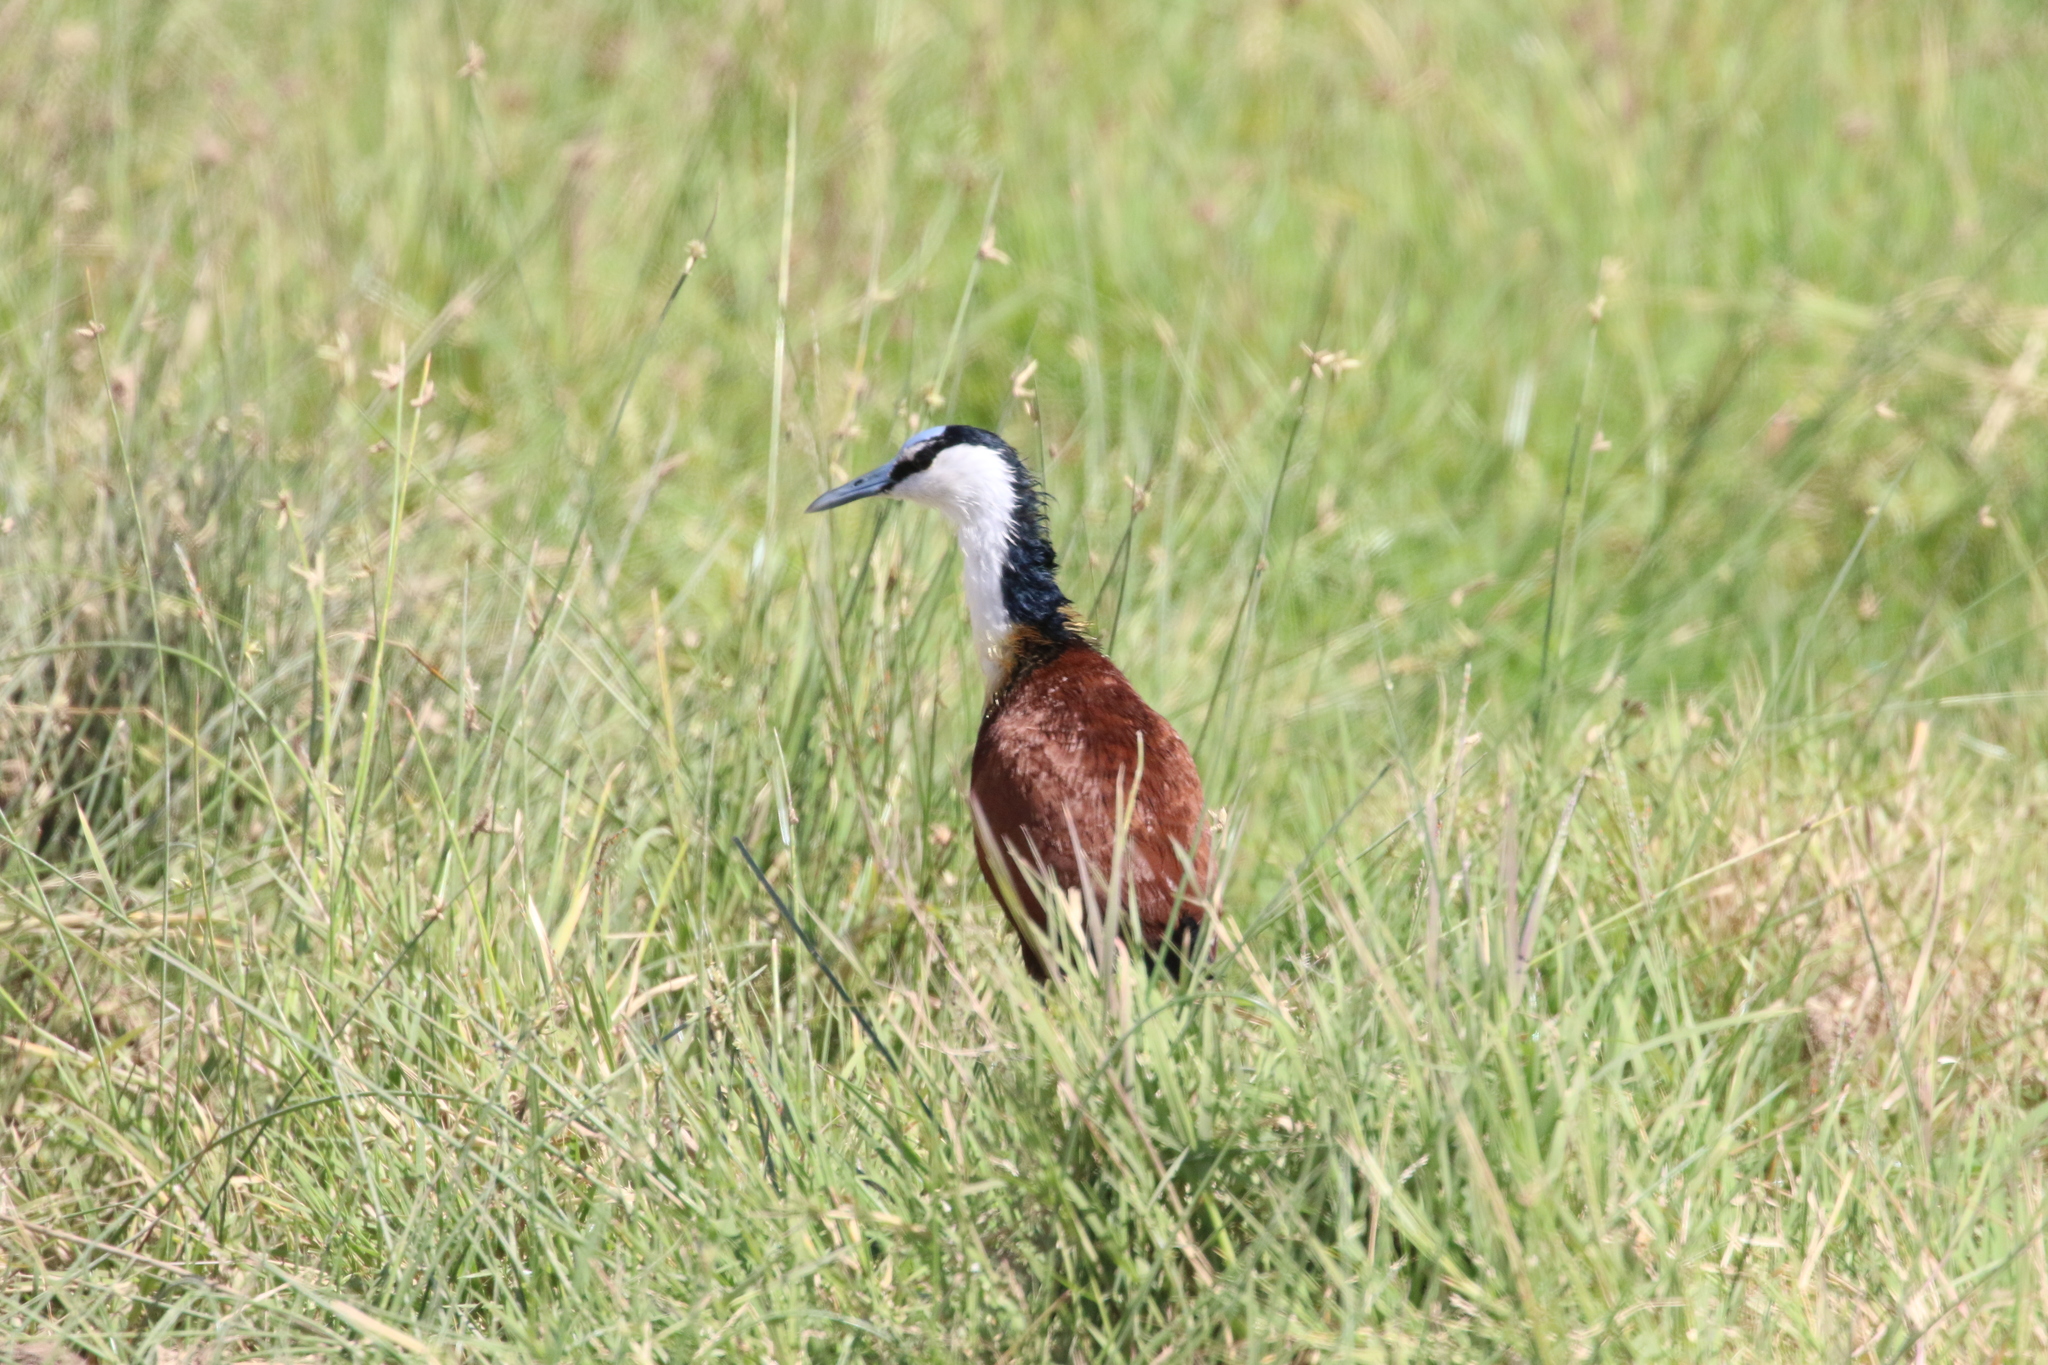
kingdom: Animalia
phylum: Chordata
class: Aves
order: Charadriiformes
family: Jacanidae
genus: Actophilornis
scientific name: Actophilornis africanus
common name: African jacana
